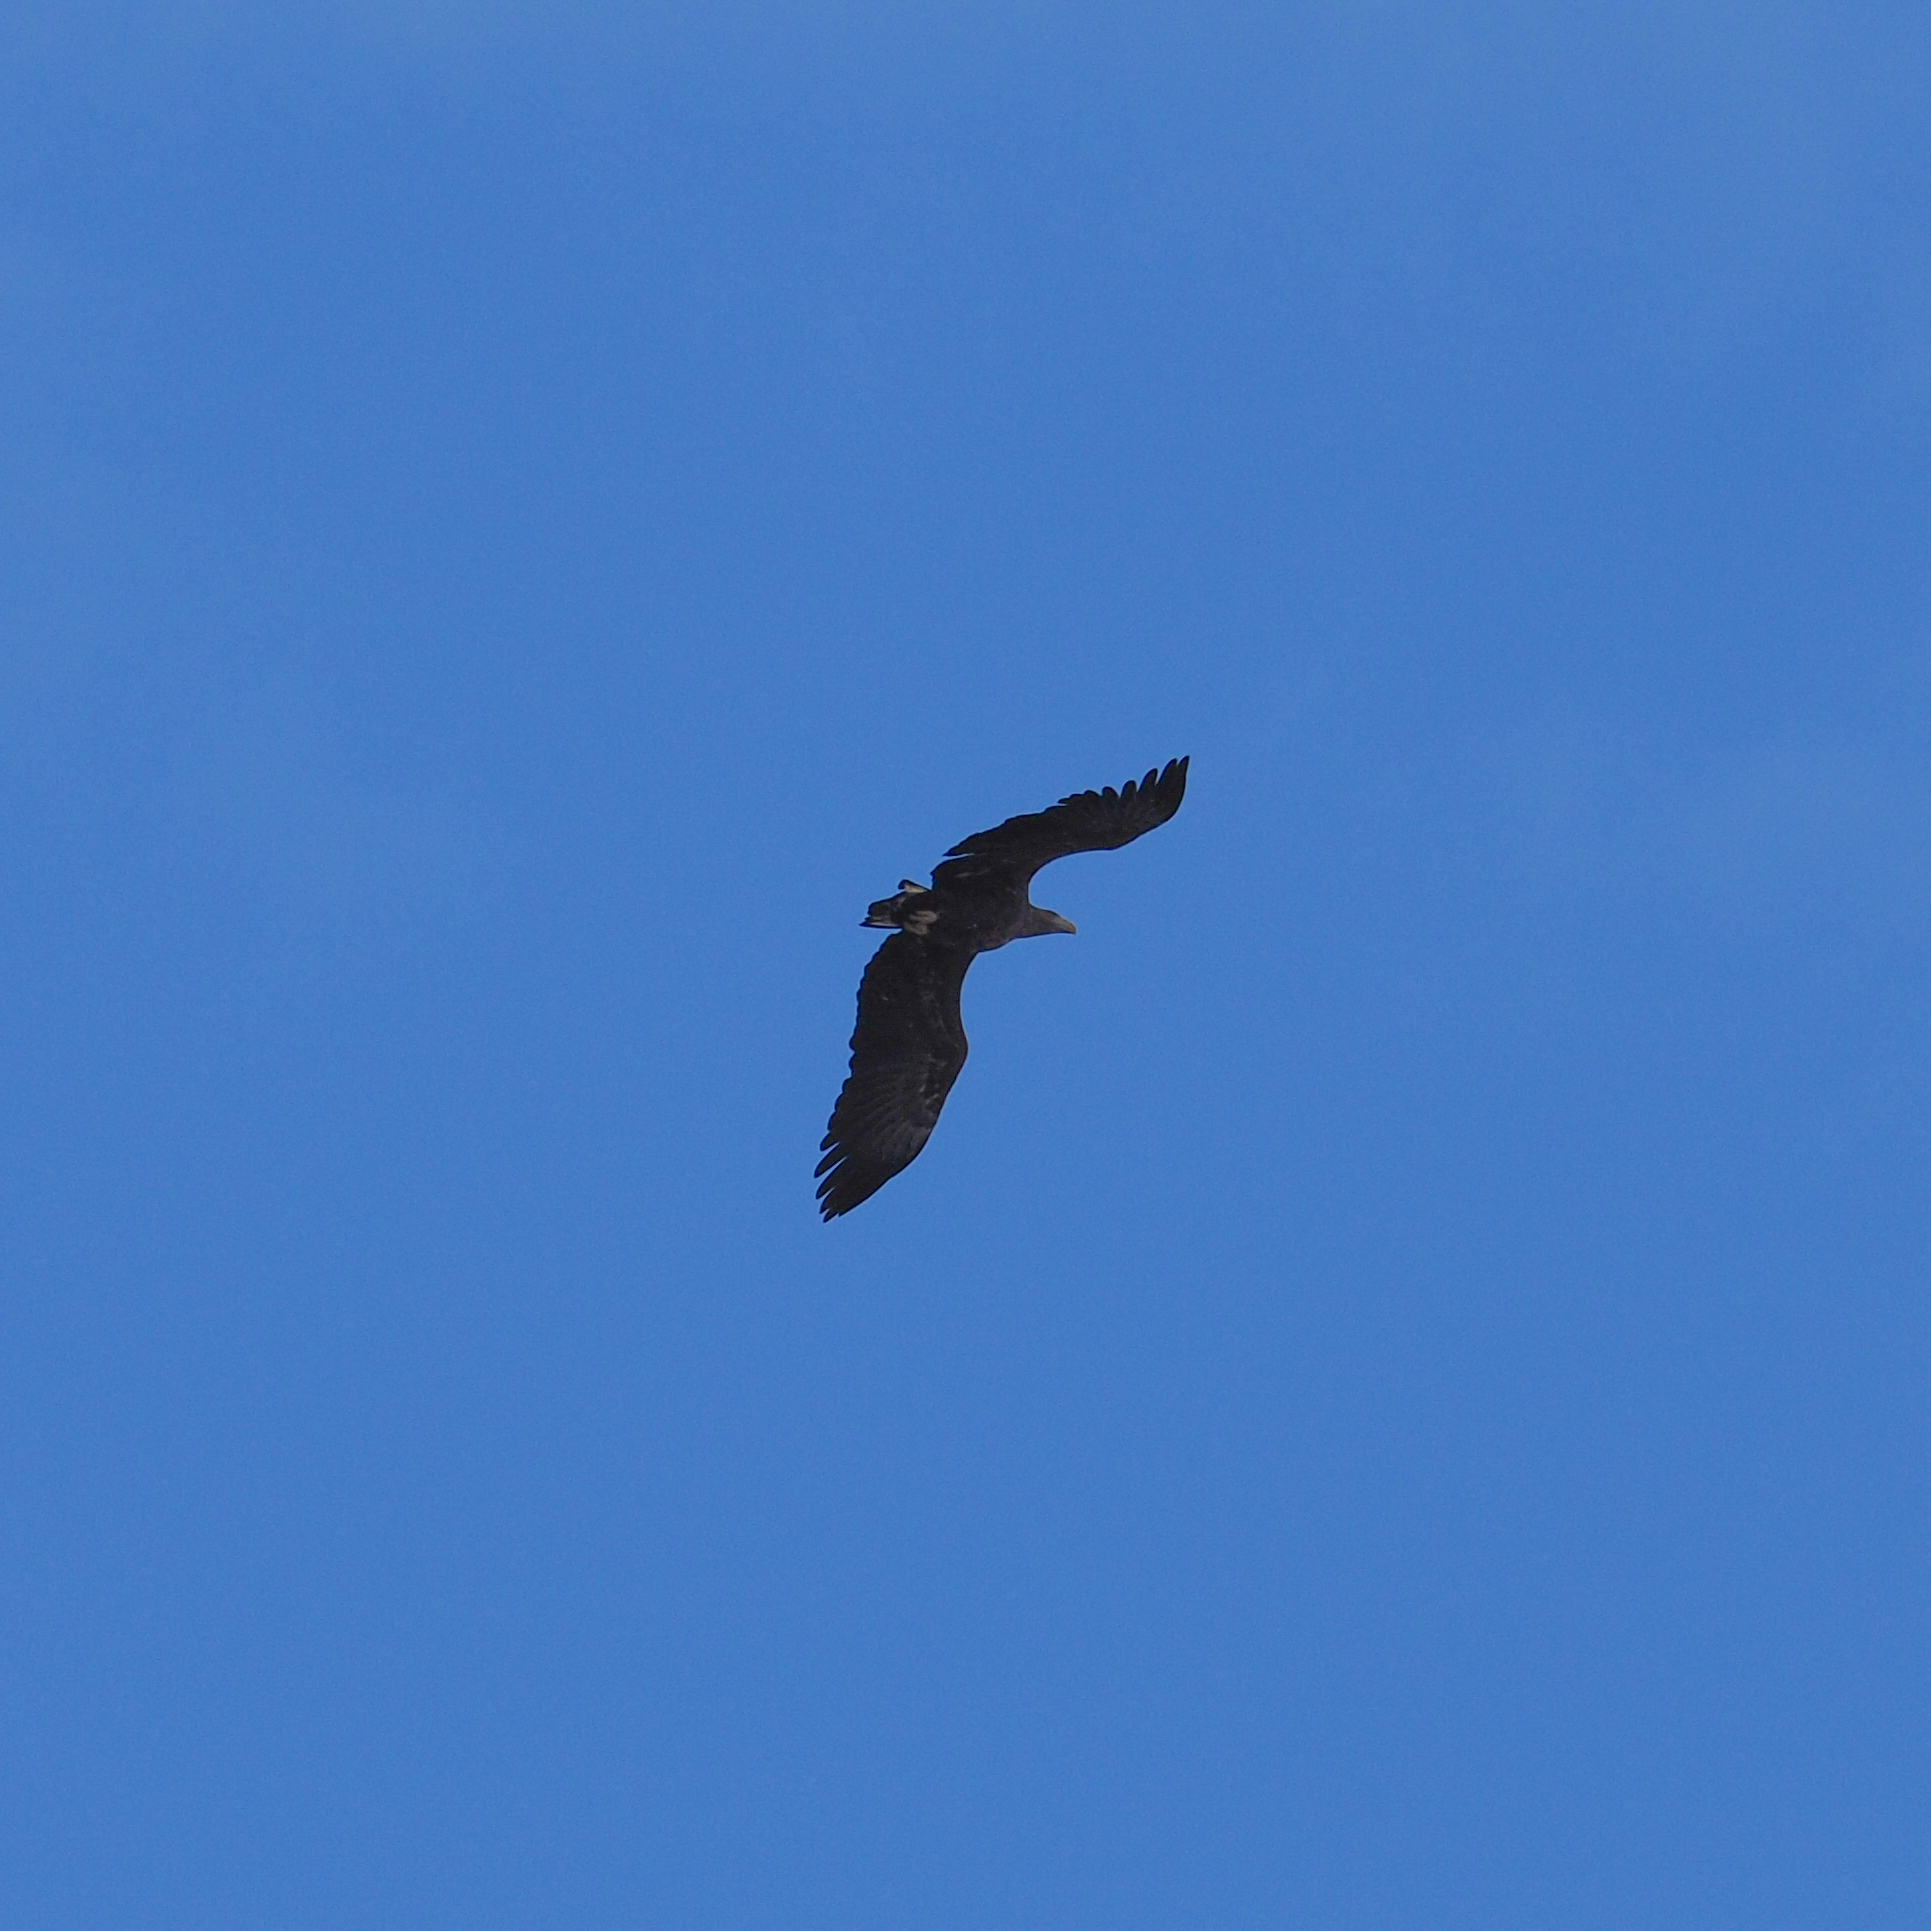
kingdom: Animalia
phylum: Chordata
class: Aves
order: Accipitriformes
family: Accipitridae
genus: Haliaeetus
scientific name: Haliaeetus albicilla
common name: White-tailed eagle
